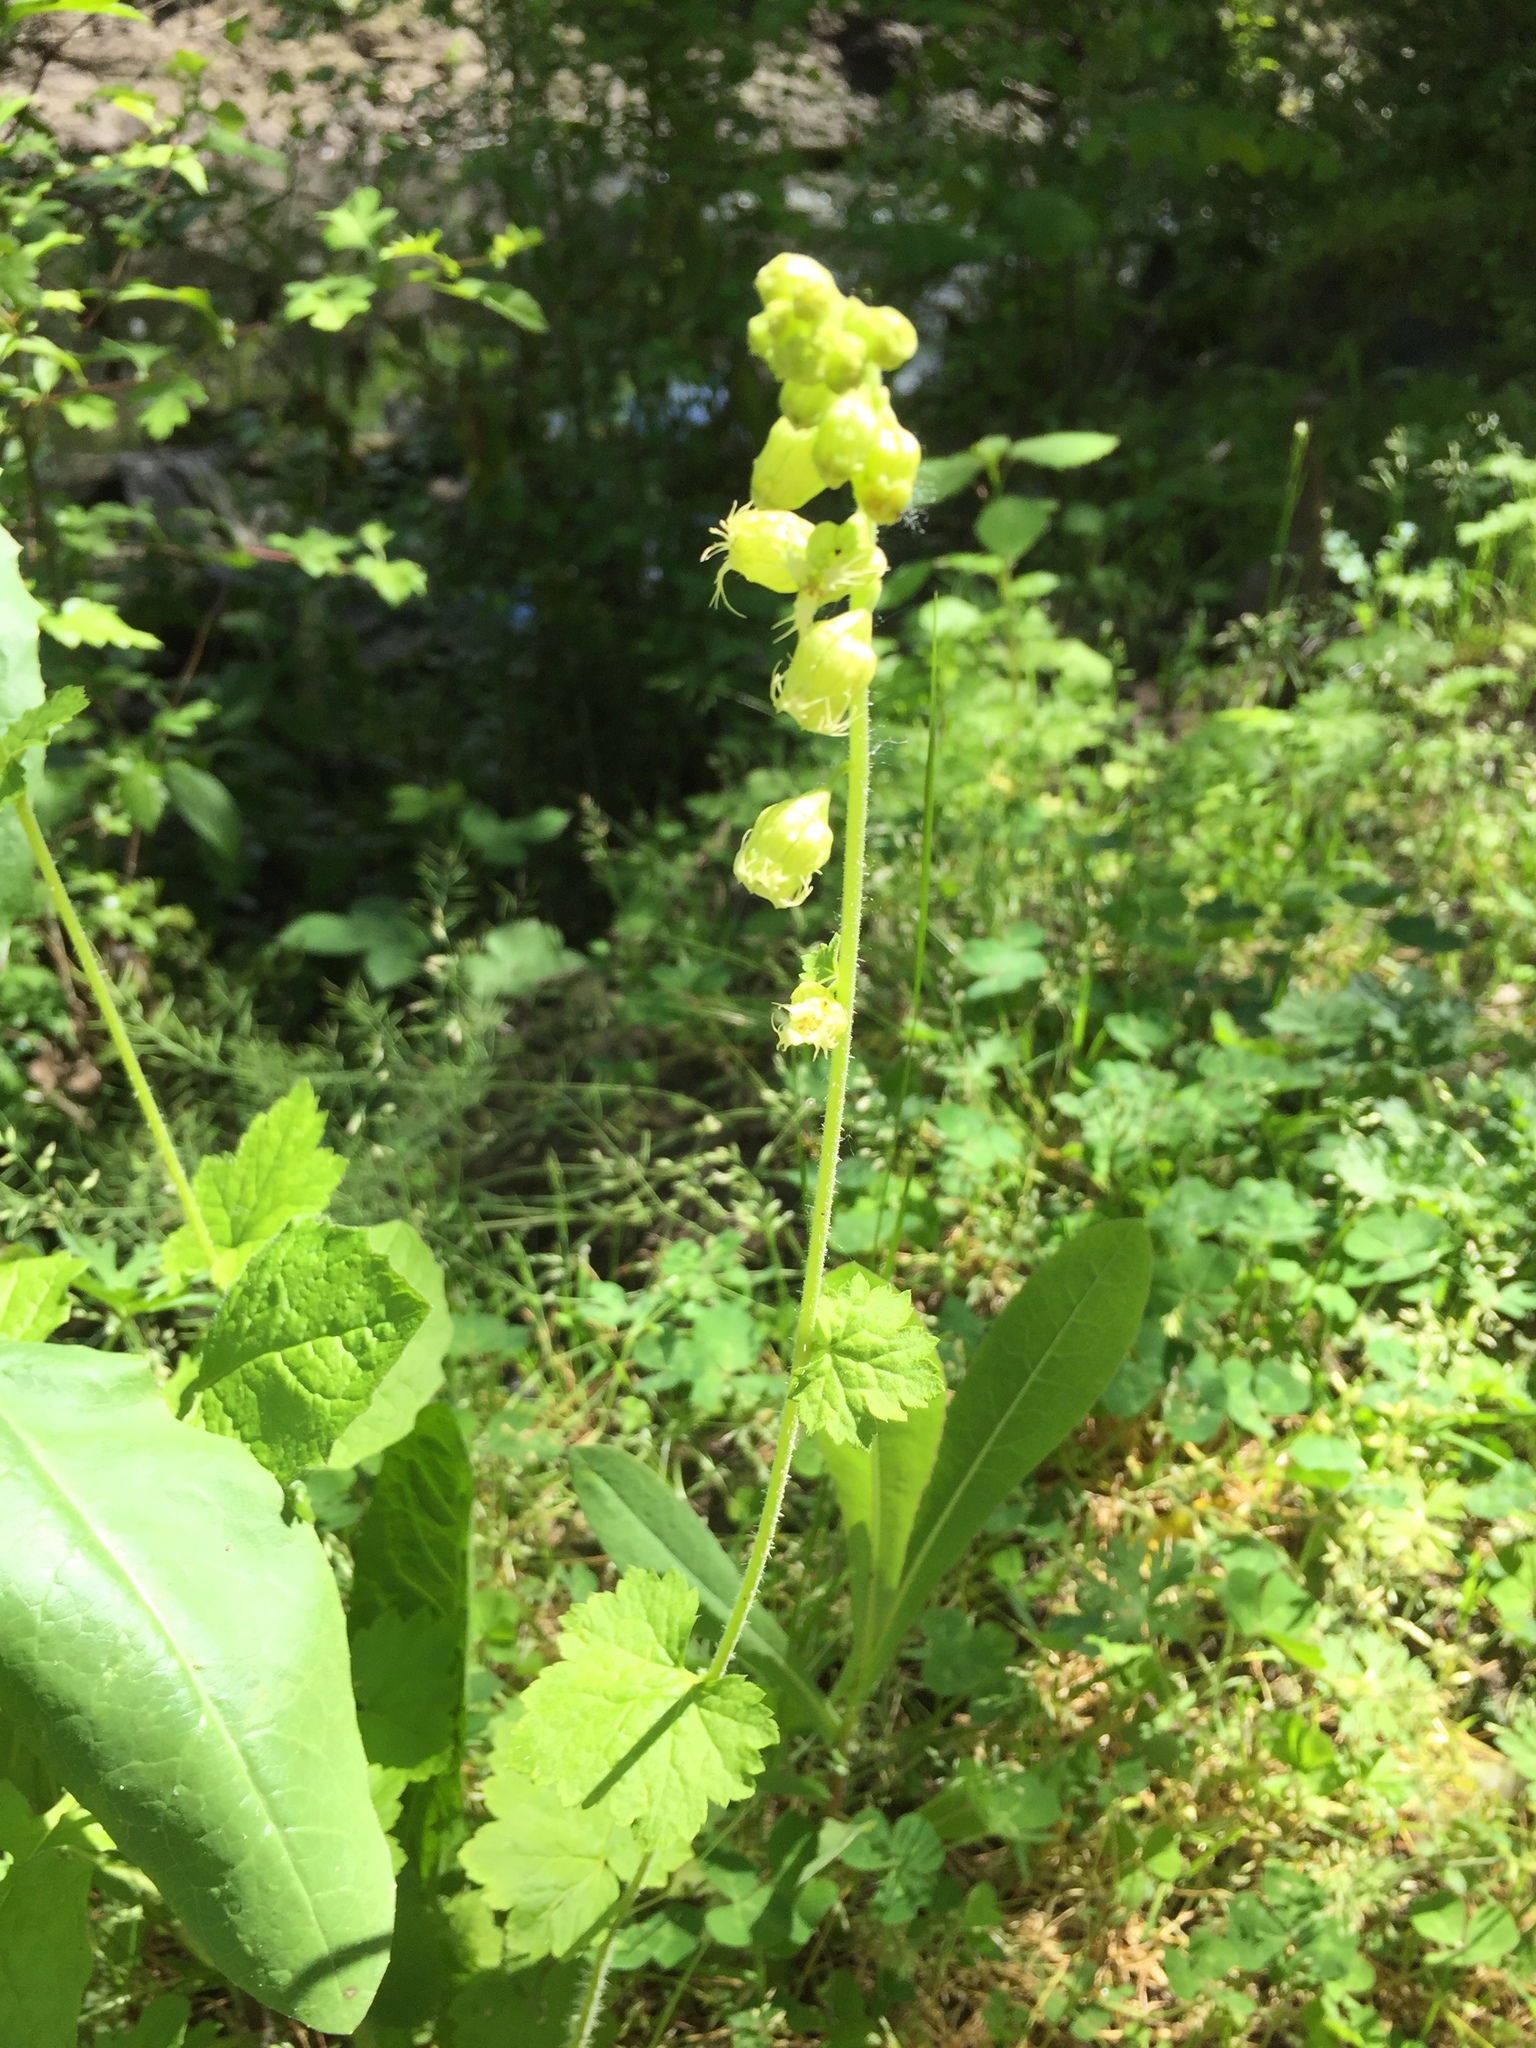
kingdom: Plantae
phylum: Tracheophyta
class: Magnoliopsida
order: Saxifragales
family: Saxifragaceae
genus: Tellima
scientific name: Tellima grandiflora
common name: Fringecups
